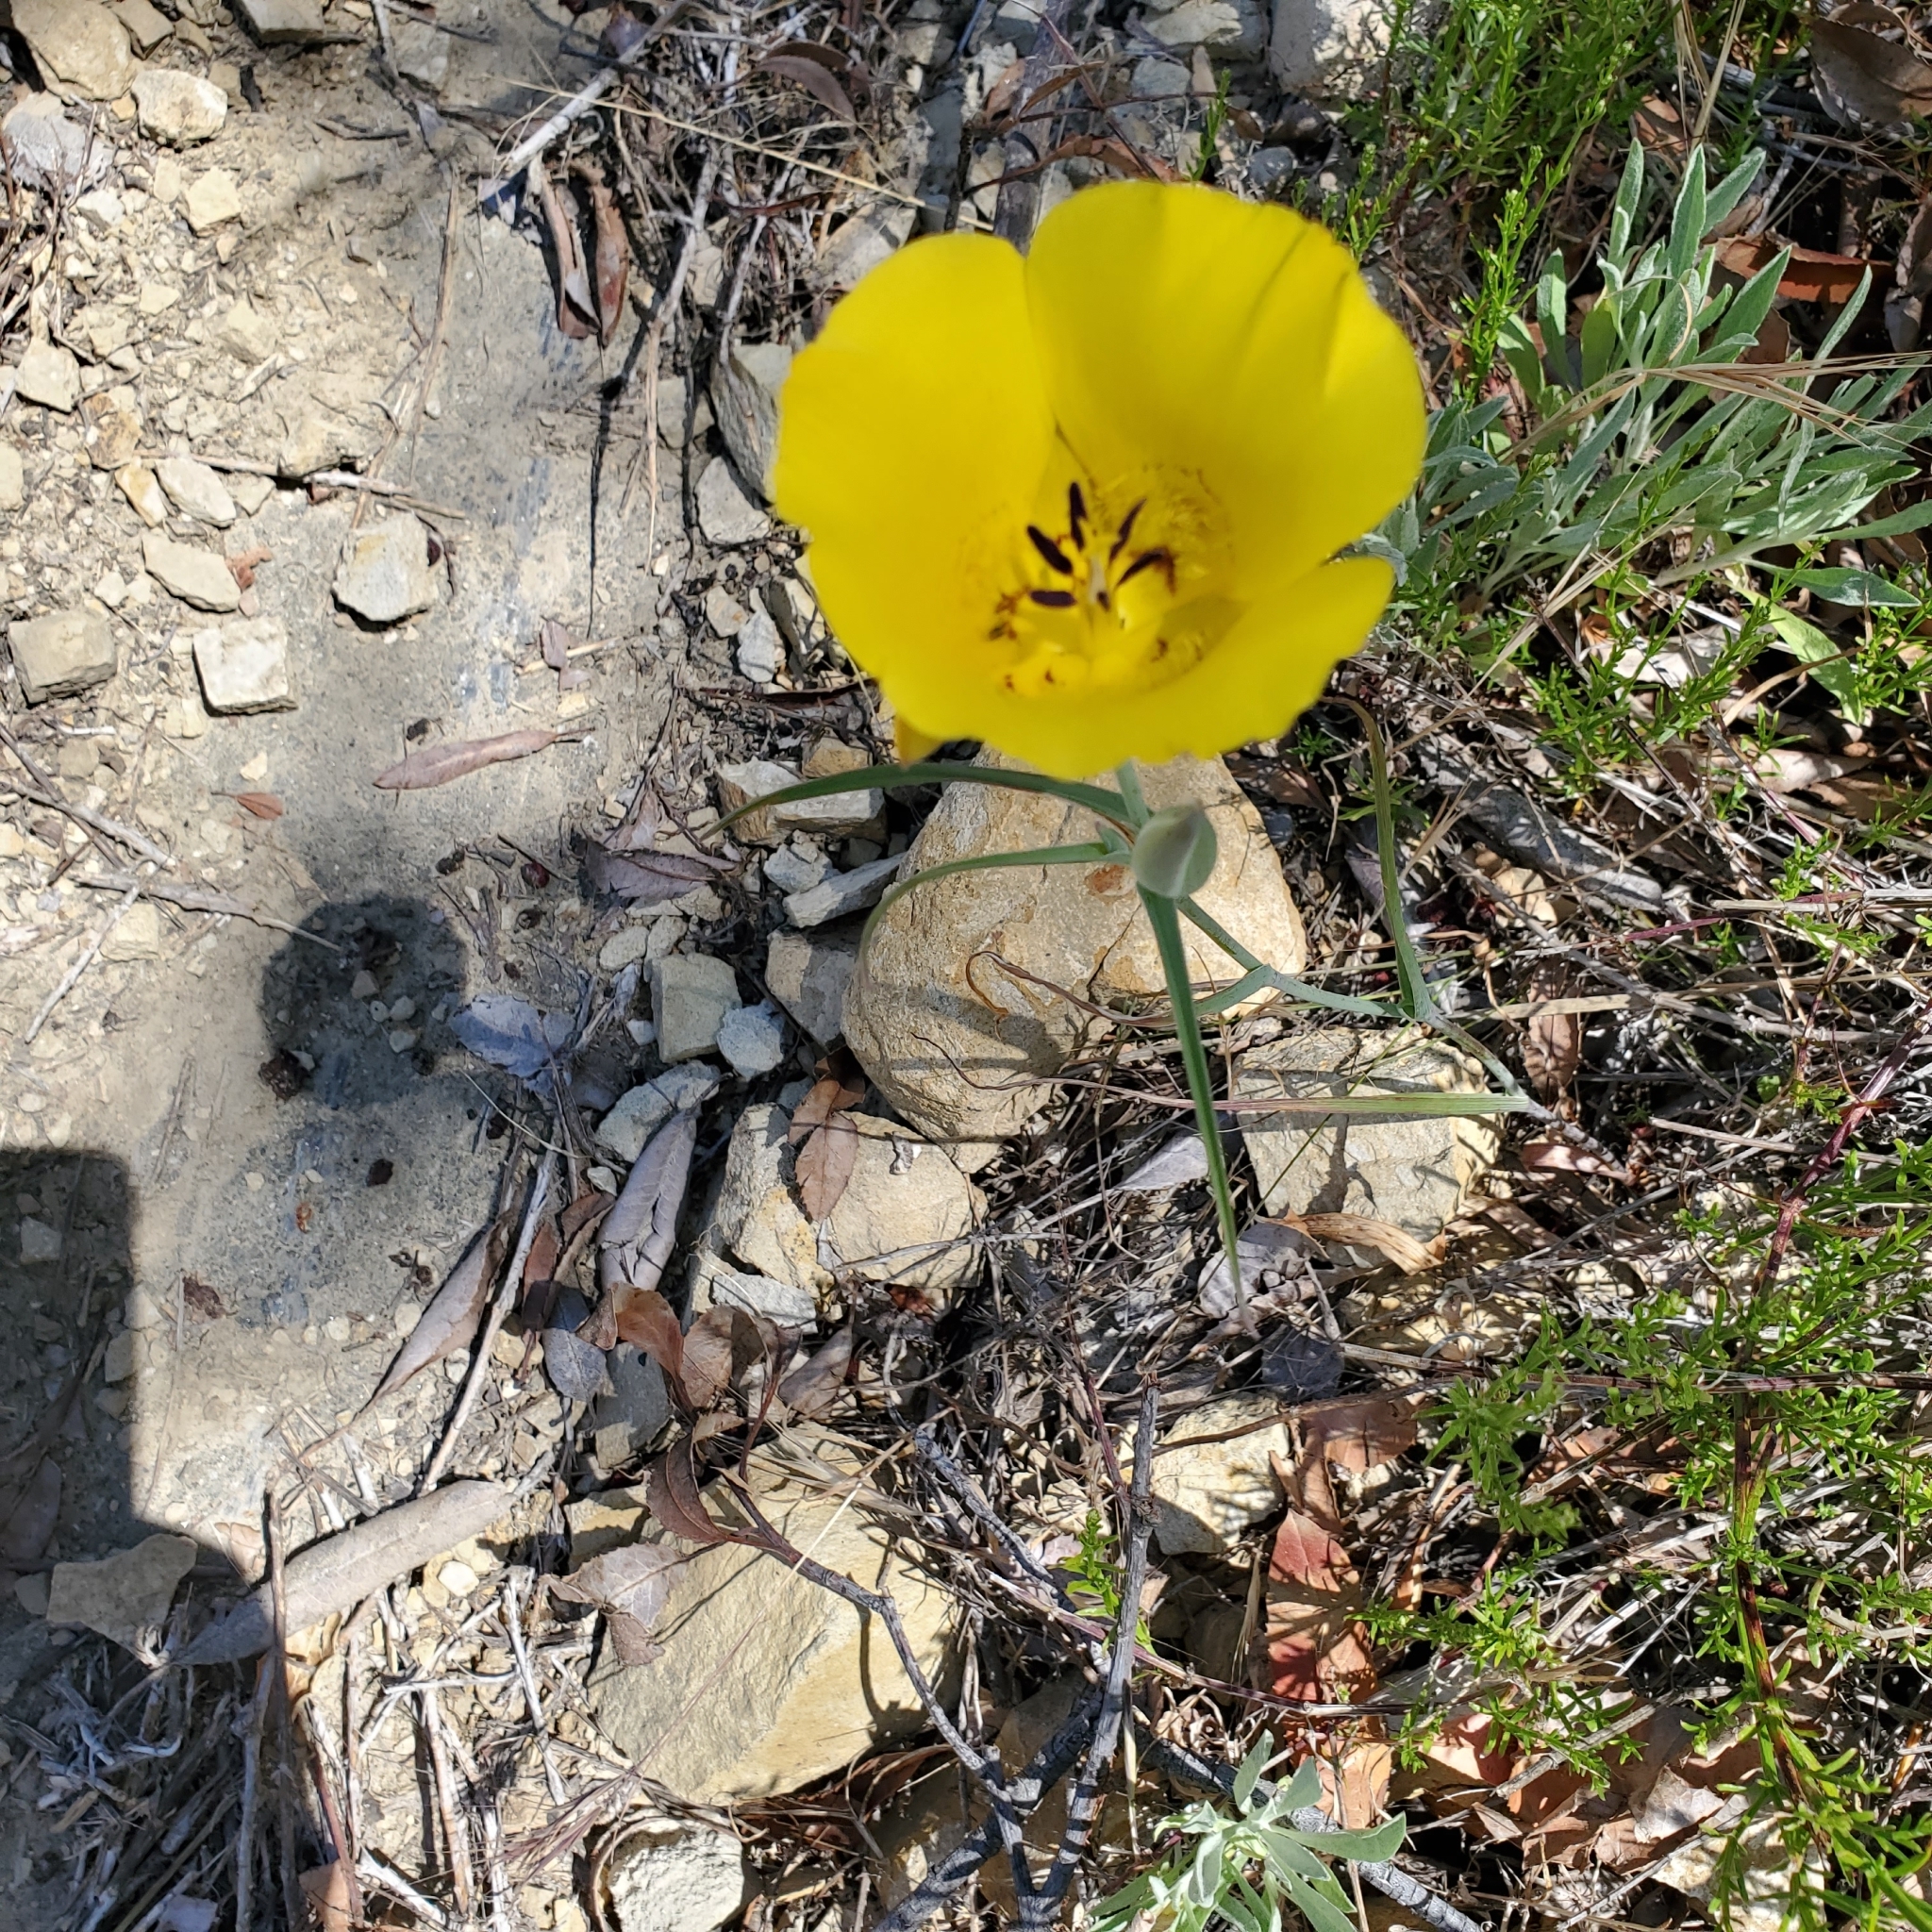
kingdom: Plantae
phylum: Tracheophyta
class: Liliopsida
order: Liliales
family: Liliaceae
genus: Calochortus
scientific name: Calochortus clavatus
